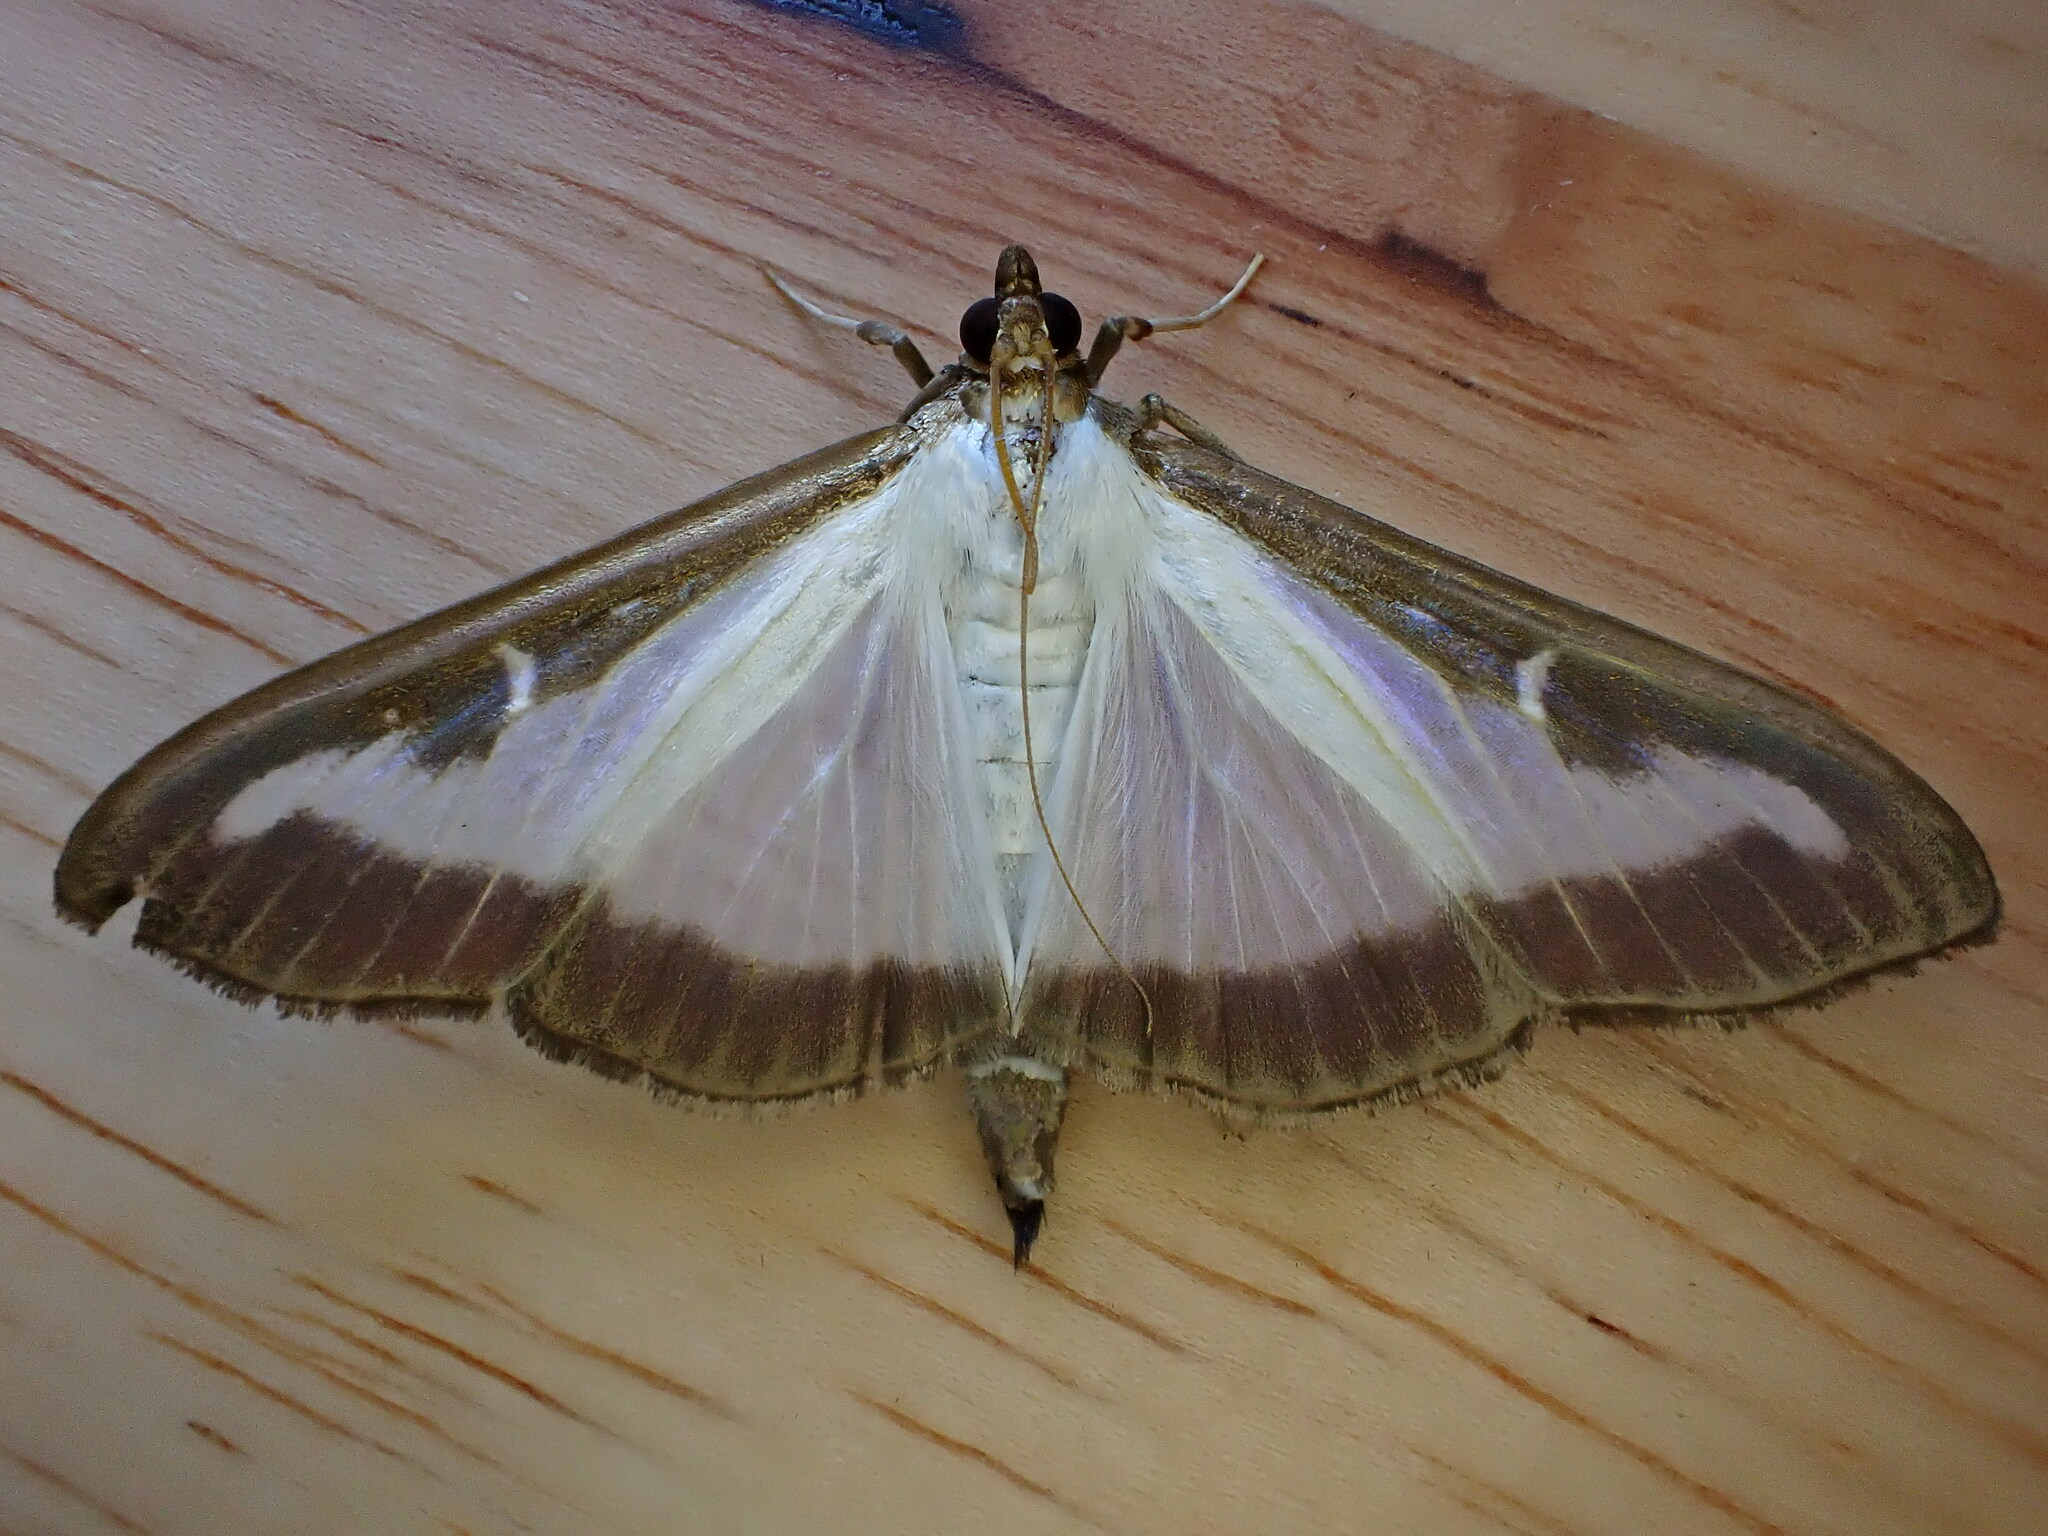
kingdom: Animalia
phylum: Arthropoda
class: Insecta
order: Lepidoptera
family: Crambidae
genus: Cydalima
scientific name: Cydalima perspectalis
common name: Box tree moth
